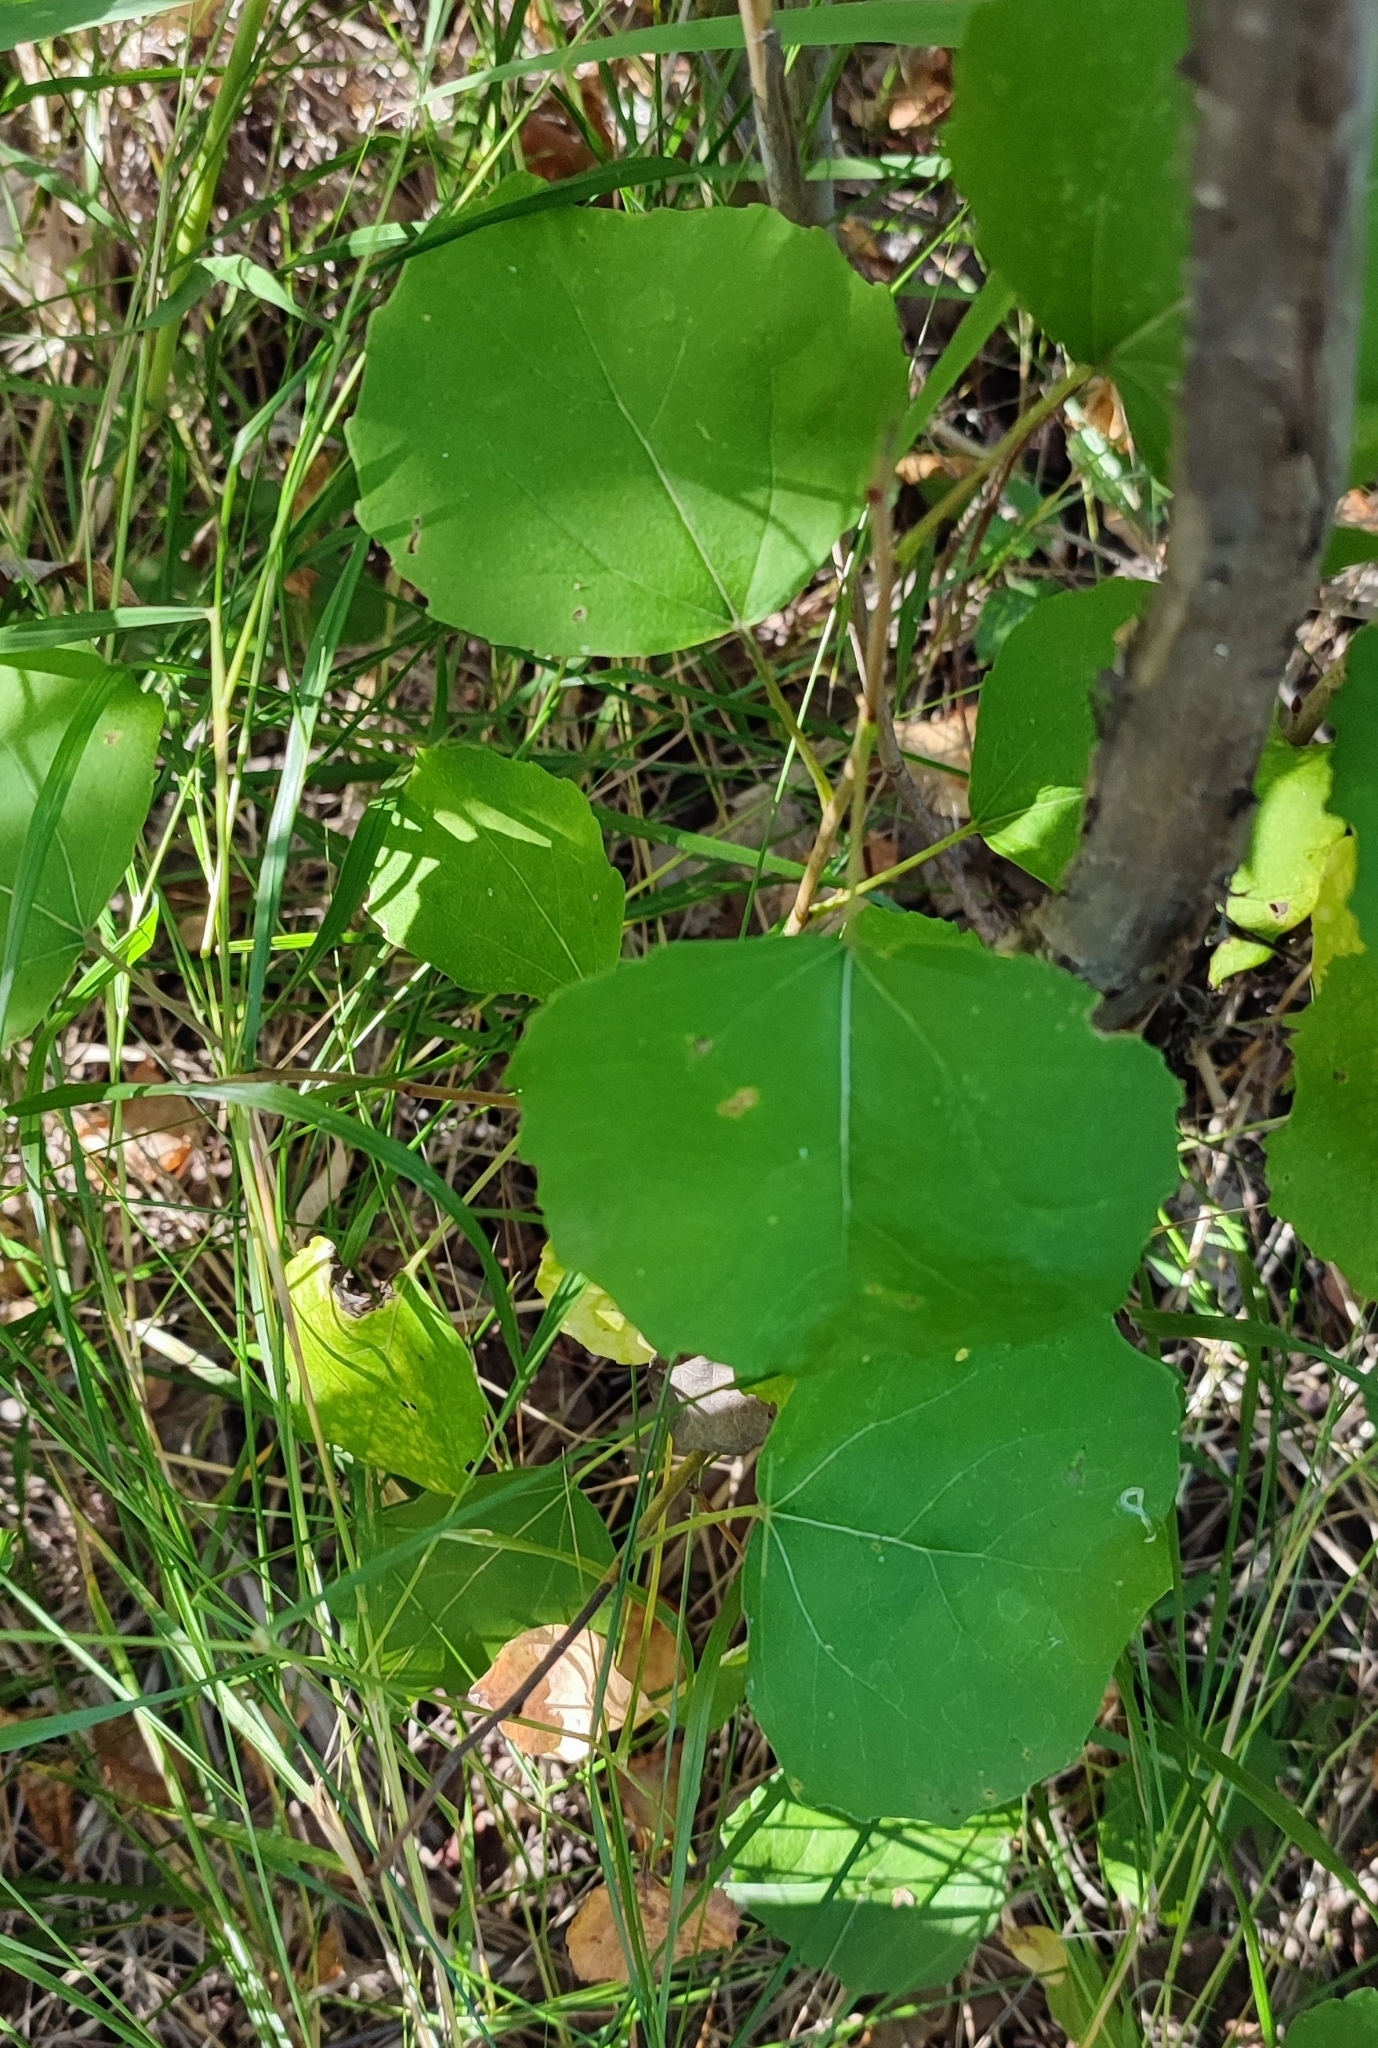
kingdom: Plantae
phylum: Tracheophyta
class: Magnoliopsida
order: Malpighiales
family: Salicaceae
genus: Populus
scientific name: Populus tremula
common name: European aspen
